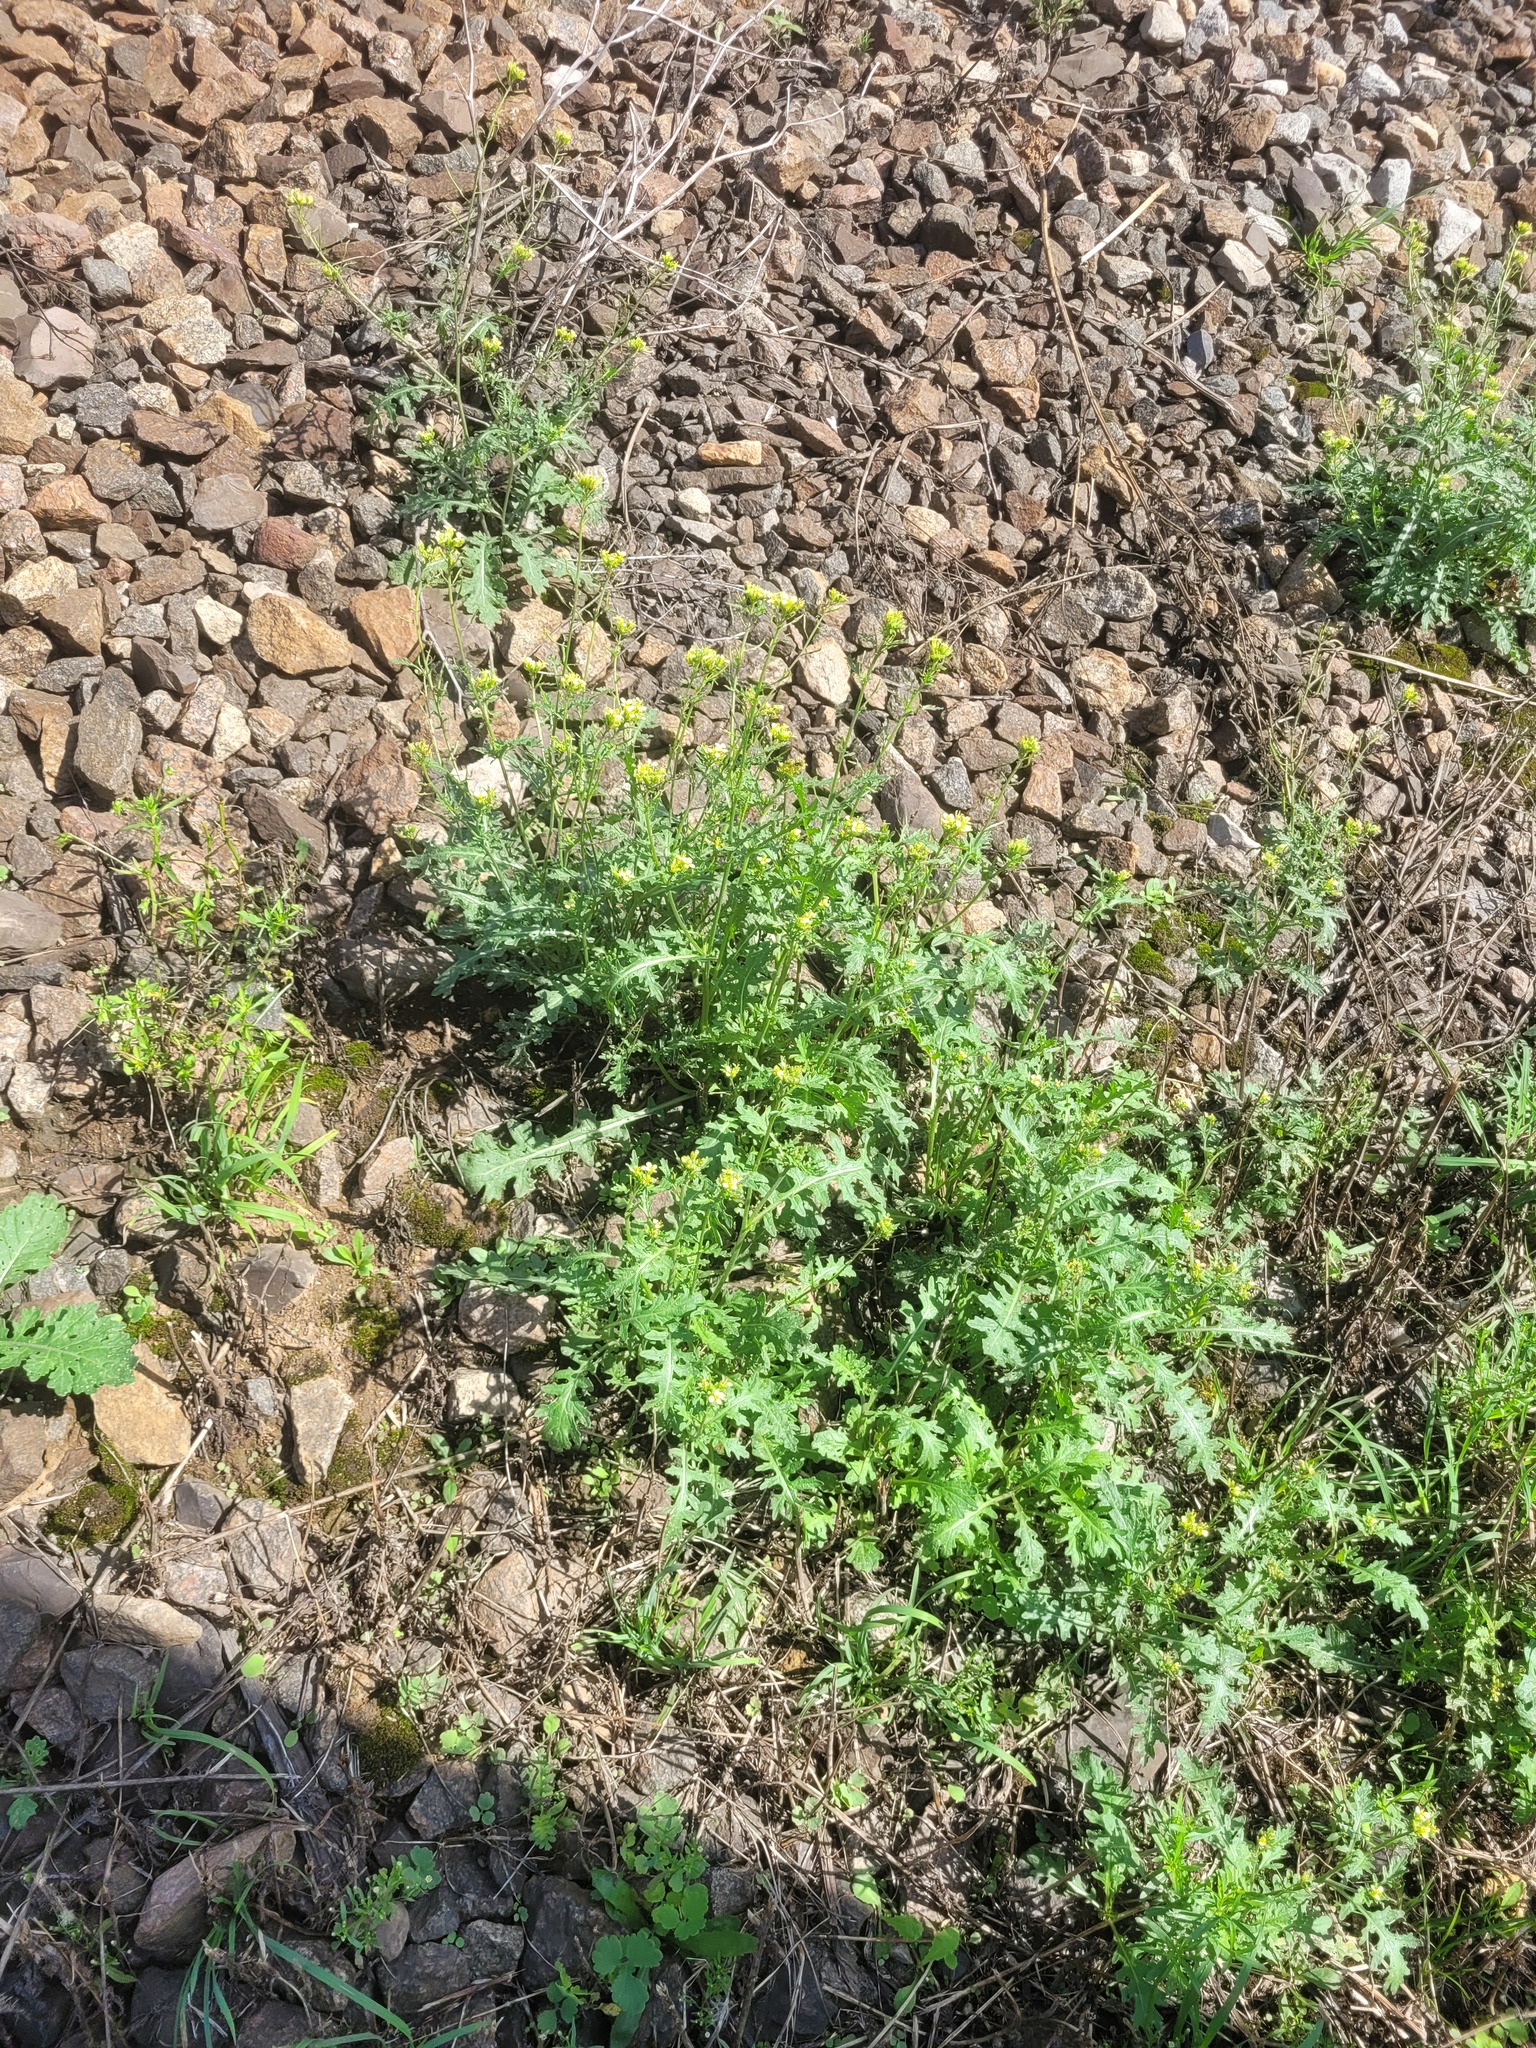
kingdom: Plantae
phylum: Tracheophyta
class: Magnoliopsida
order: Brassicales
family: Brassicaceae
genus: Erucastrum
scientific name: Erucastrum gallicum
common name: Hairy rocket
